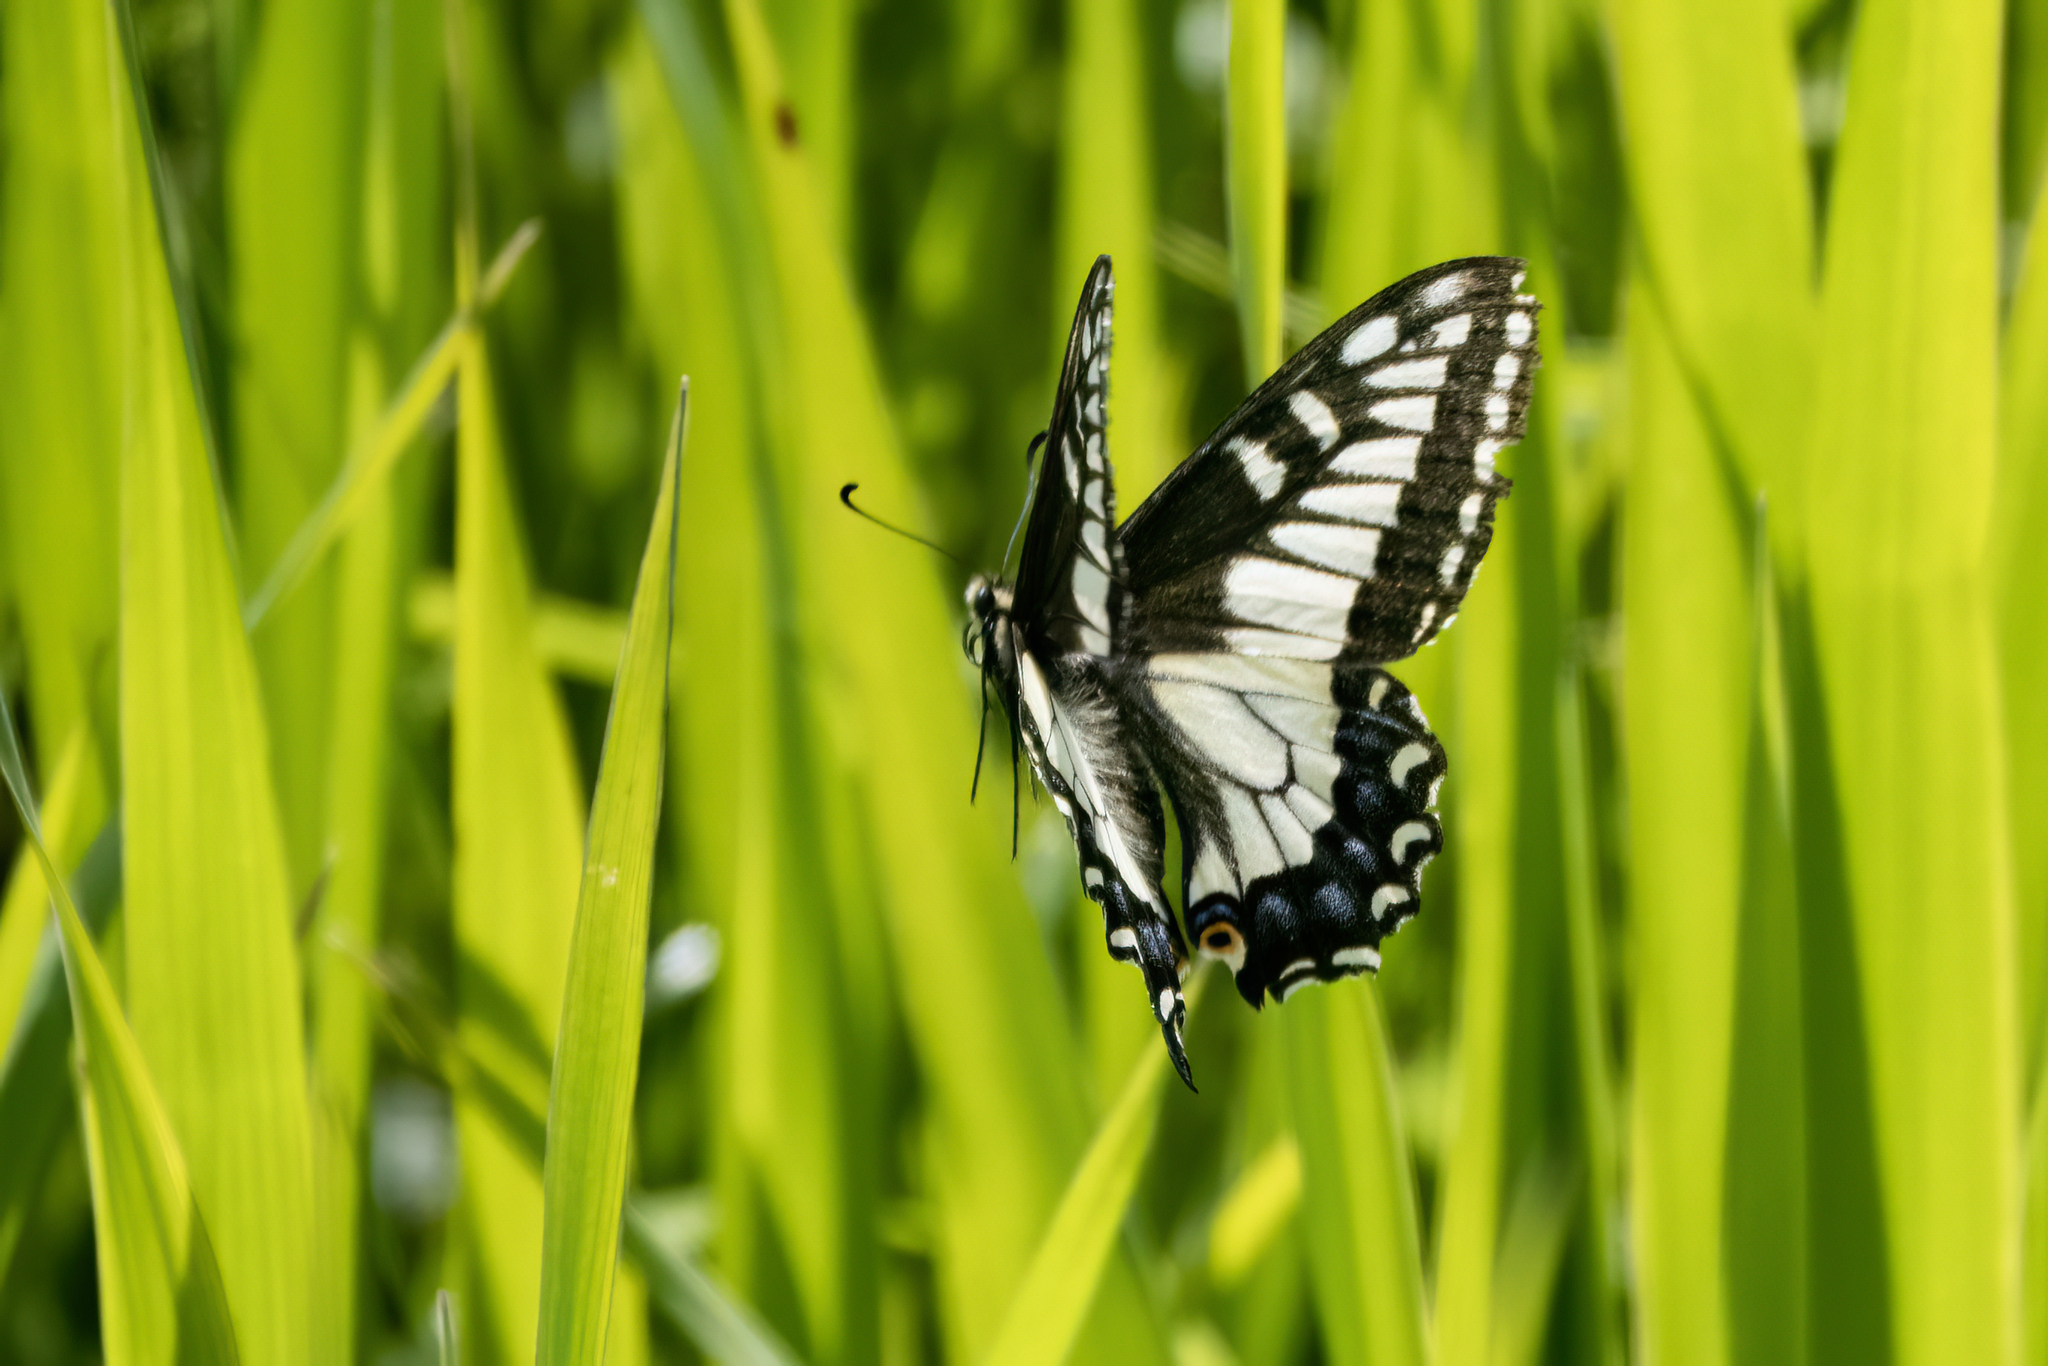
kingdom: Animalia
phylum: Arthropoda
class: Insecta
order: Lepidoptera
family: Papilionidae
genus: Papilio
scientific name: Papilio zelicaon
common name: Anise swallowtail
